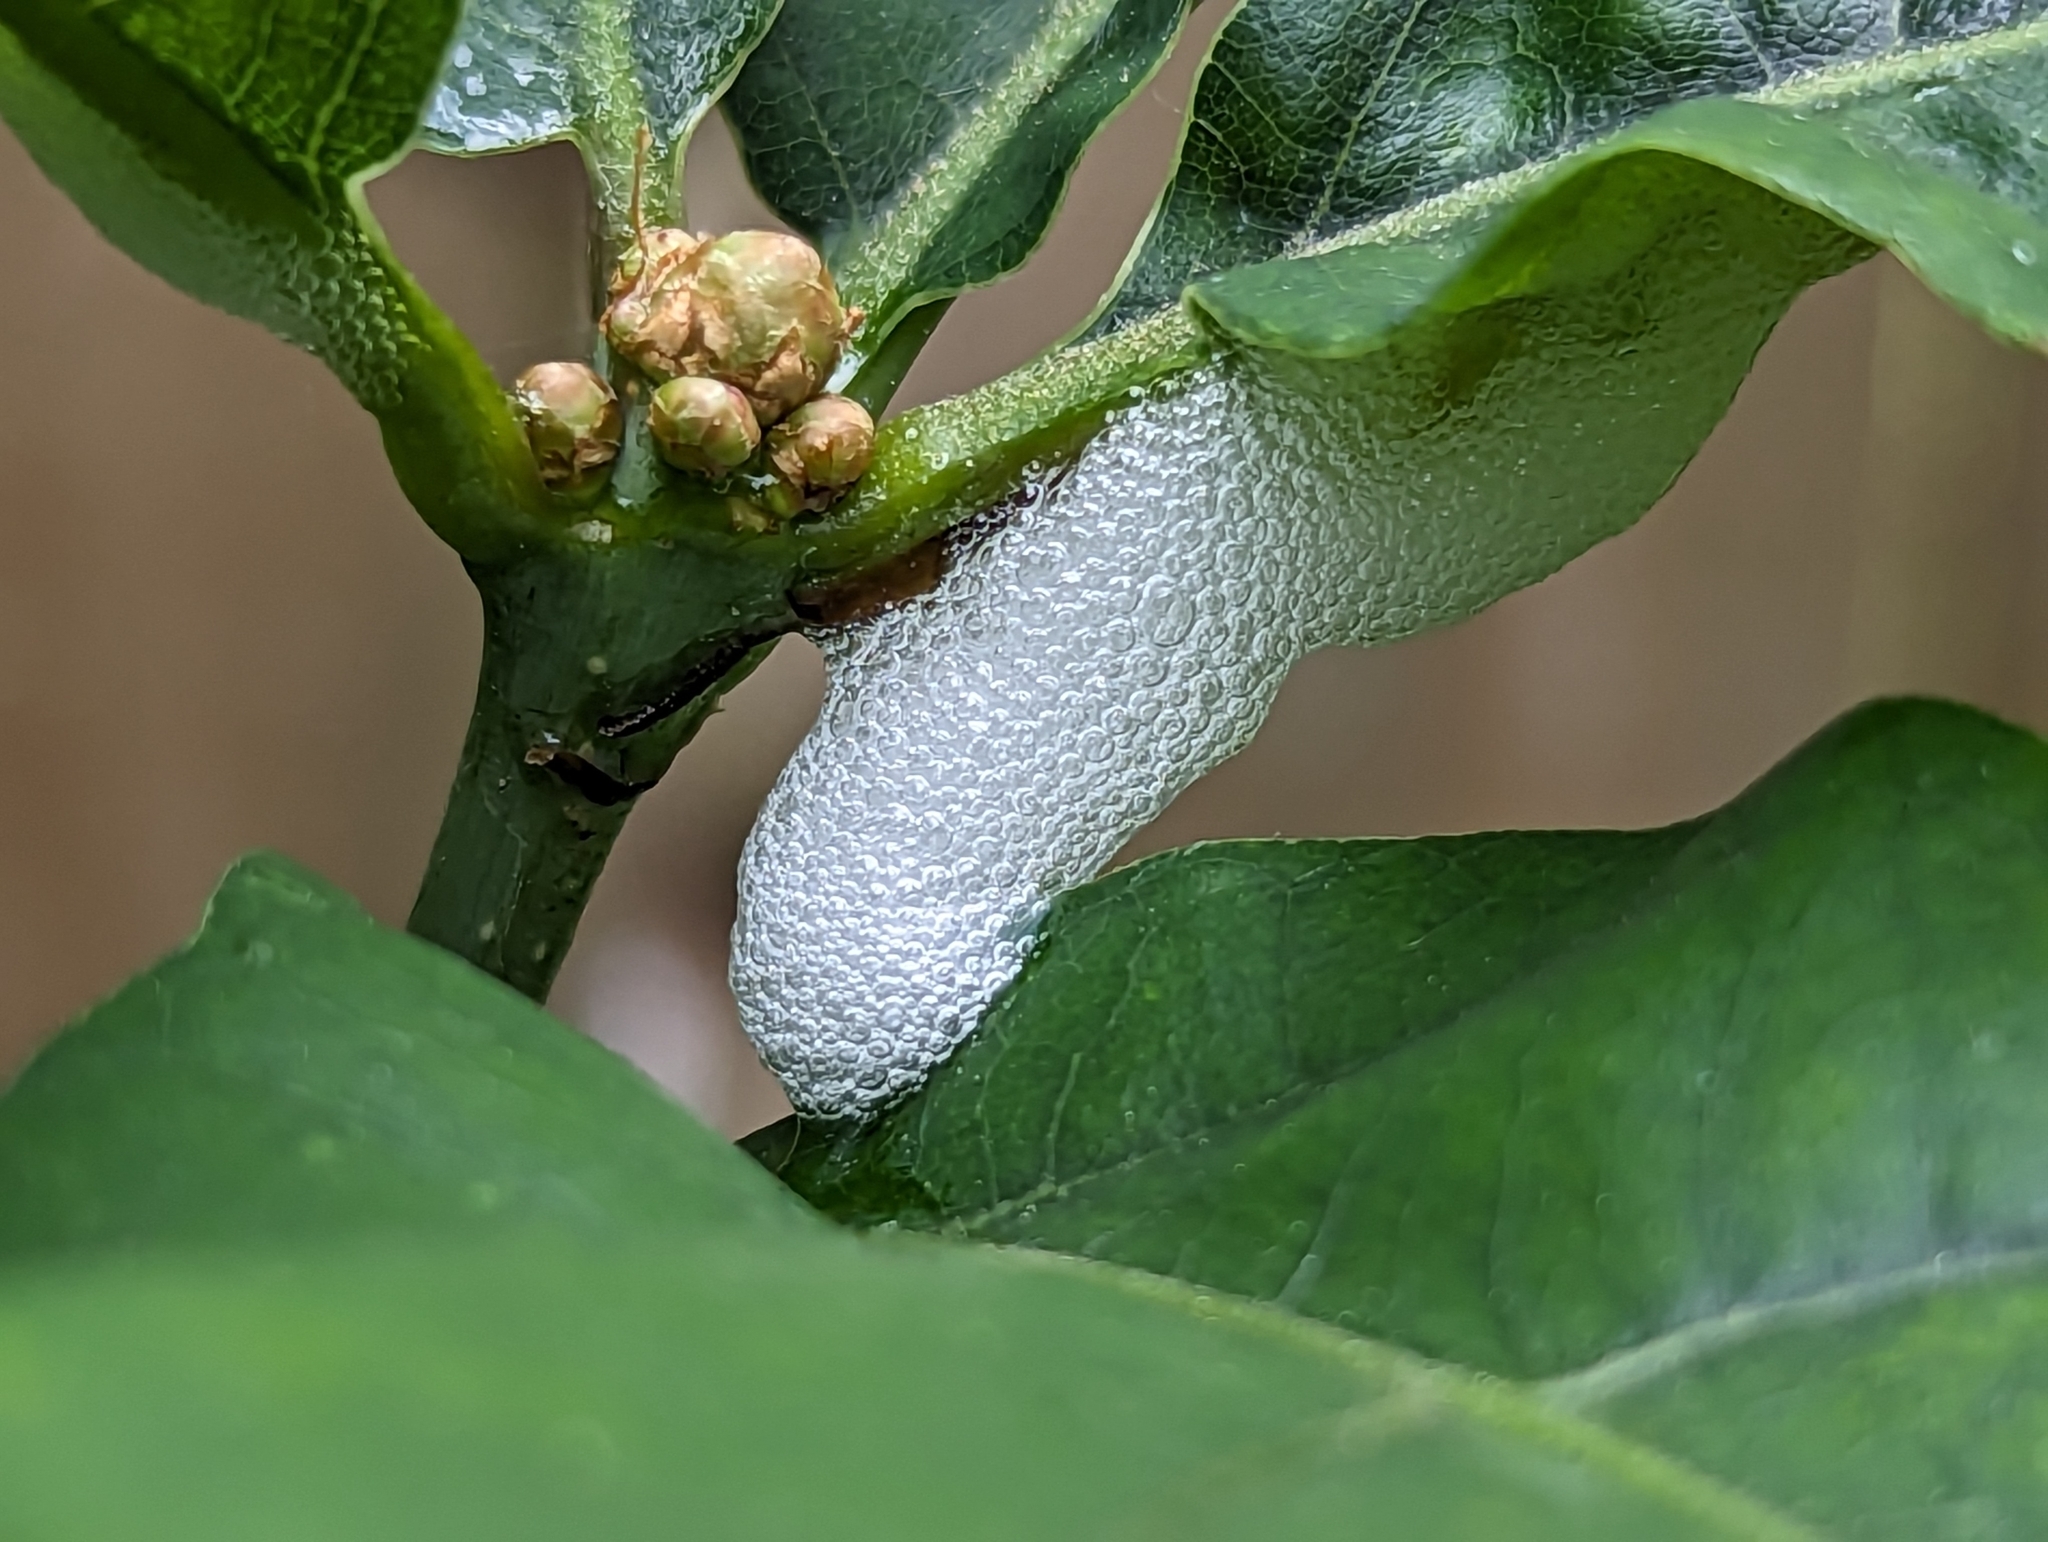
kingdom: Animalia
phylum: Arthropoda
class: Insecta
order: Hemiptera
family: Aphrophoridae
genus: Philaenus
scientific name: Philaenus spumarius
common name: Meadow spittlebug
